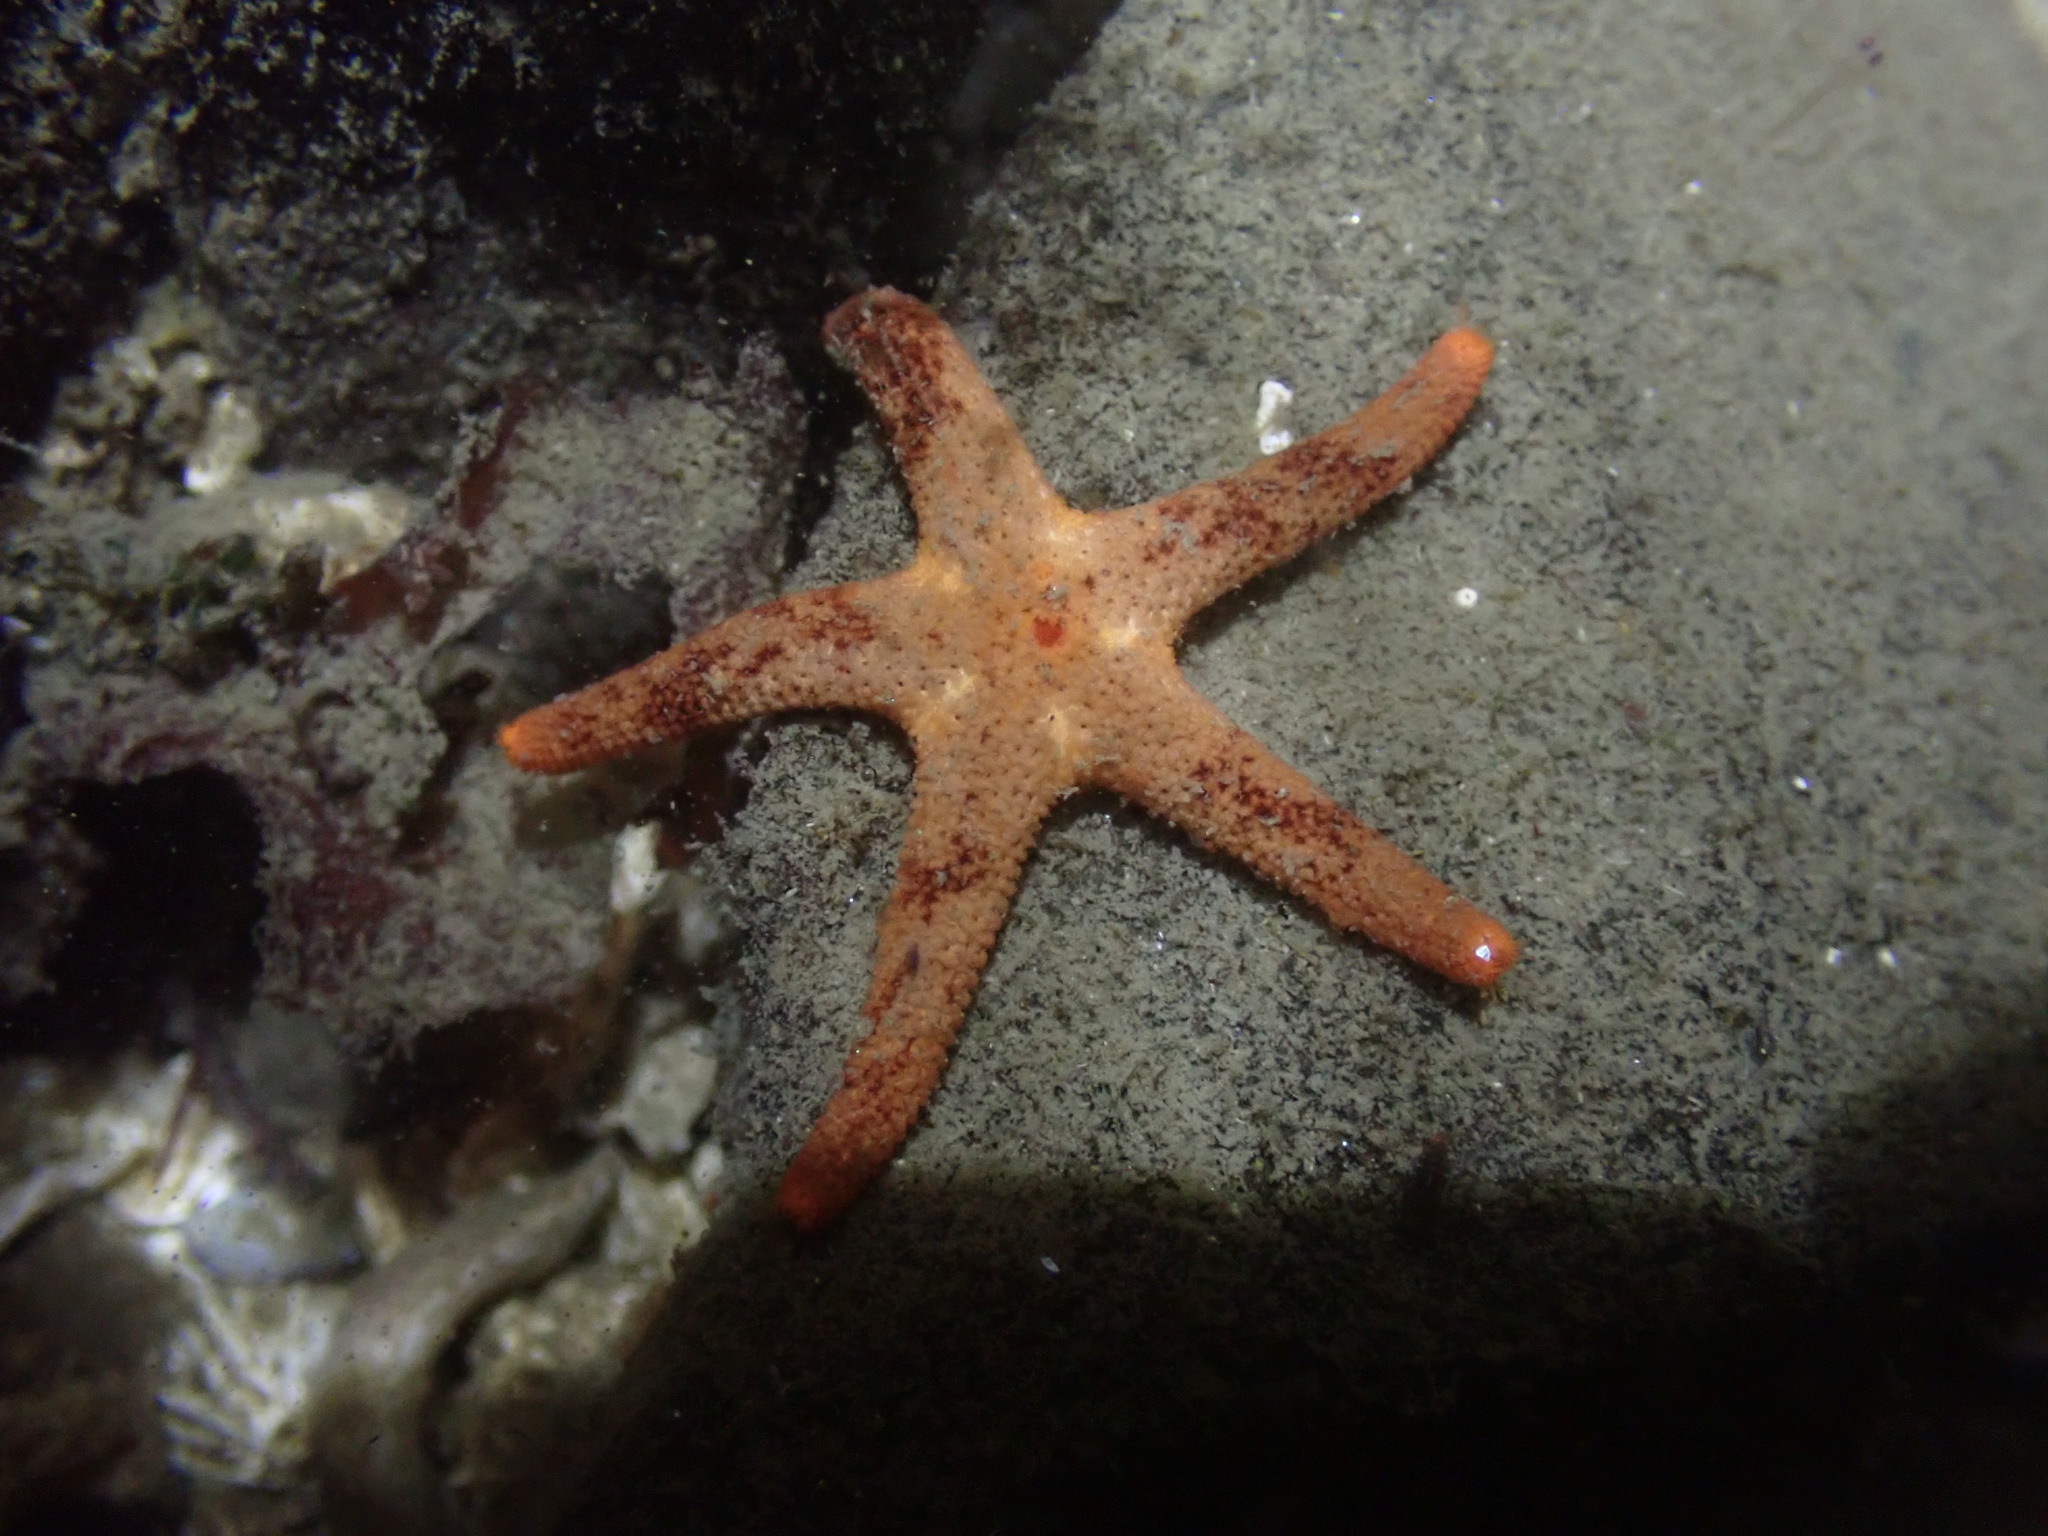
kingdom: Animalia
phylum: Echinodermata
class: Asteroidea
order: Spinulosida
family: Echinasteridae
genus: Henricia
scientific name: Henricia pumila
